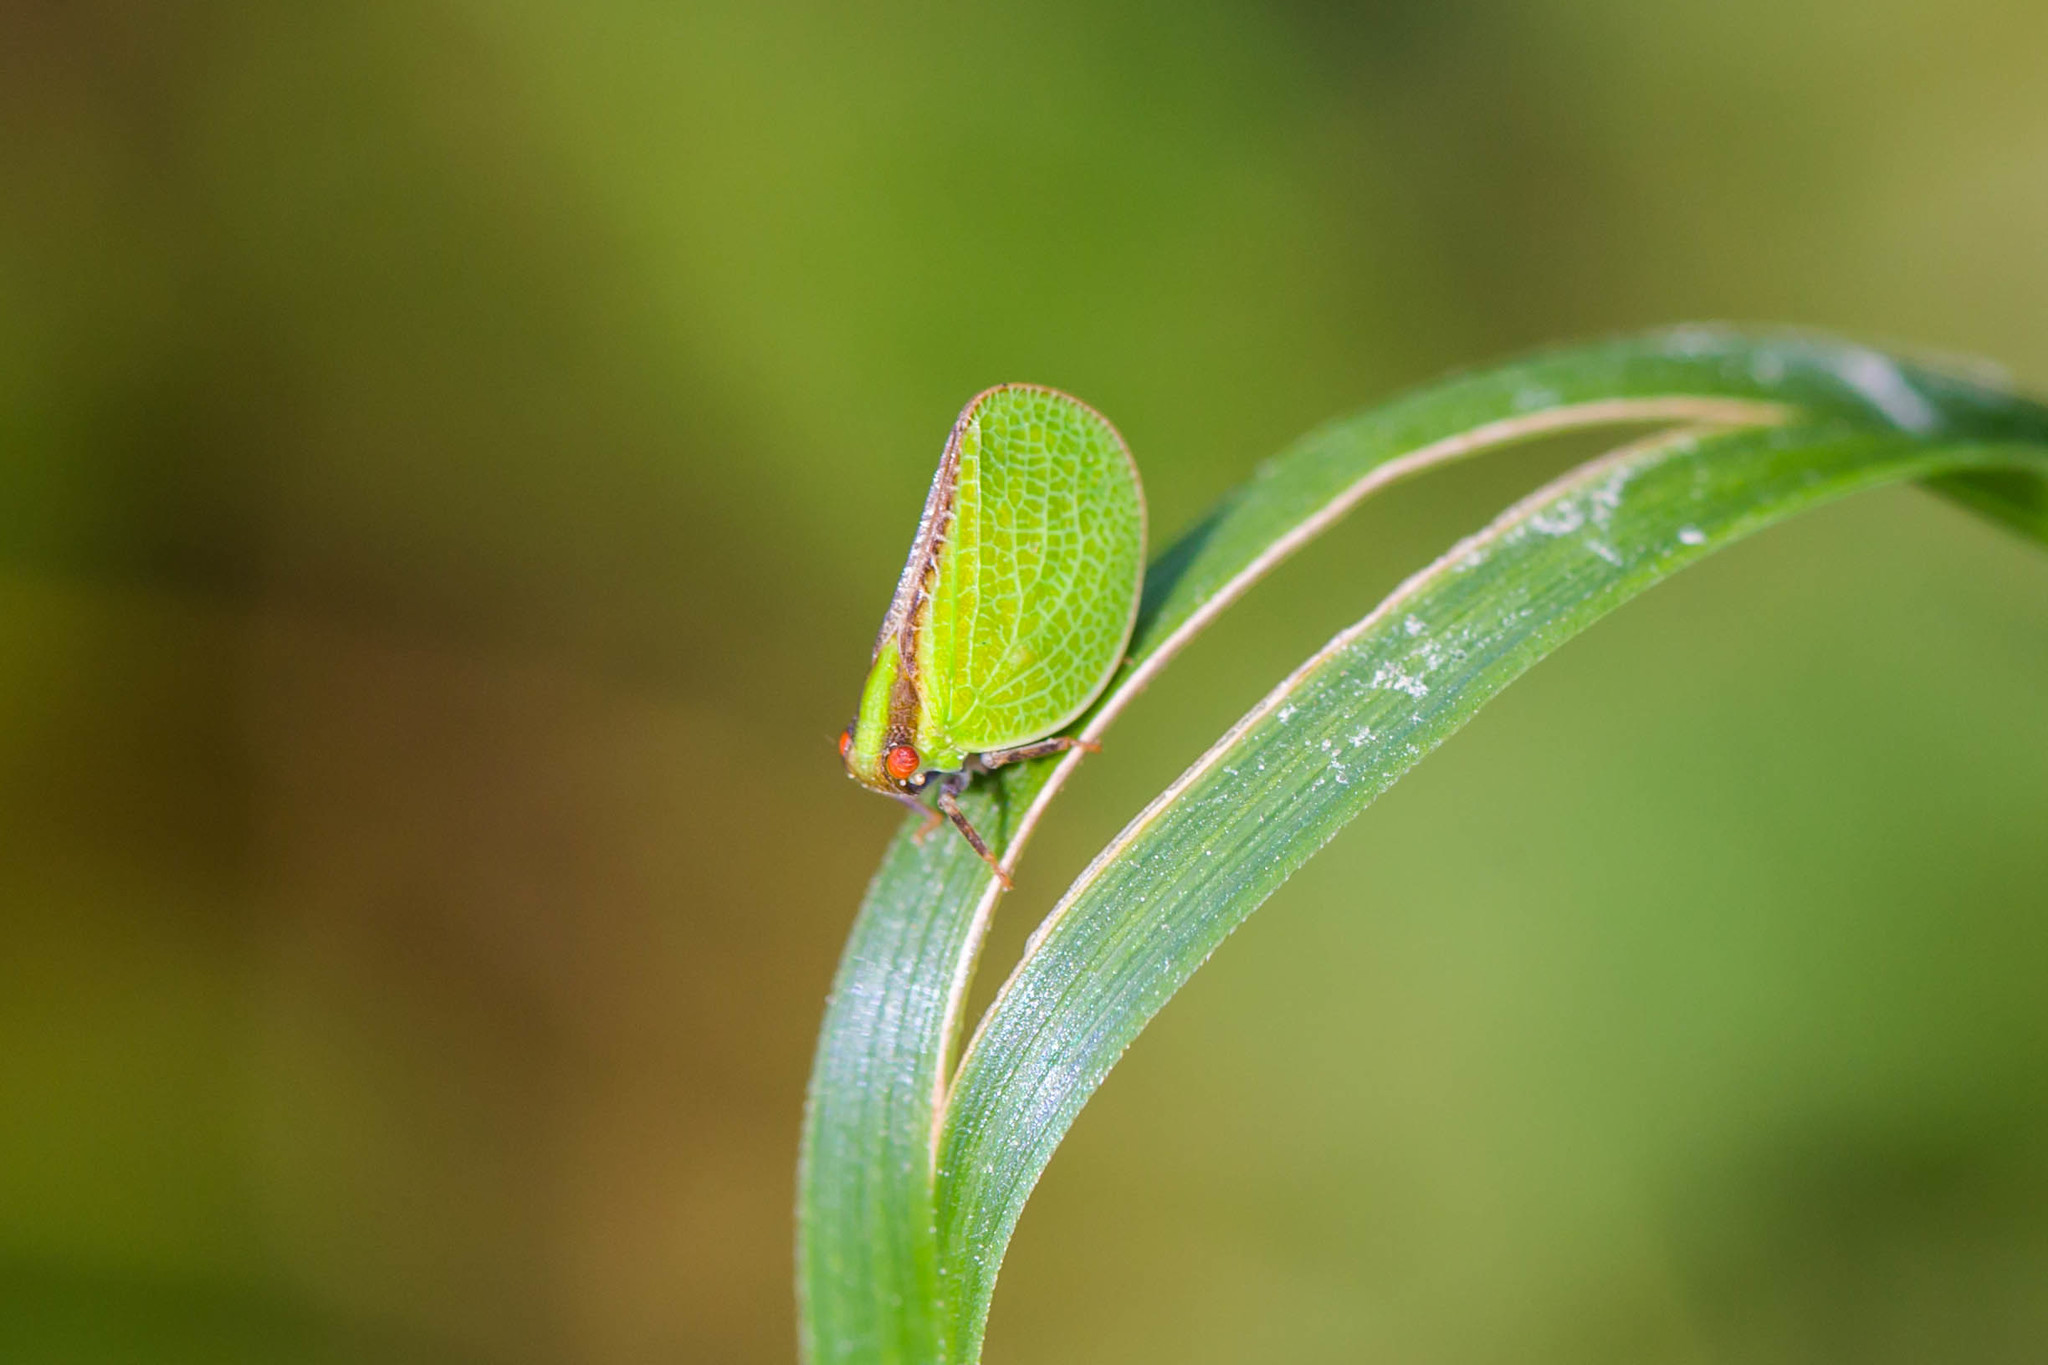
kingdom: Animalia
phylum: Arthropoda
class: Insecta
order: Hemiptera
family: Acanaloniidae
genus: Acanalonia
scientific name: Acanalonia bivittata
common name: Two-striped planthopper
